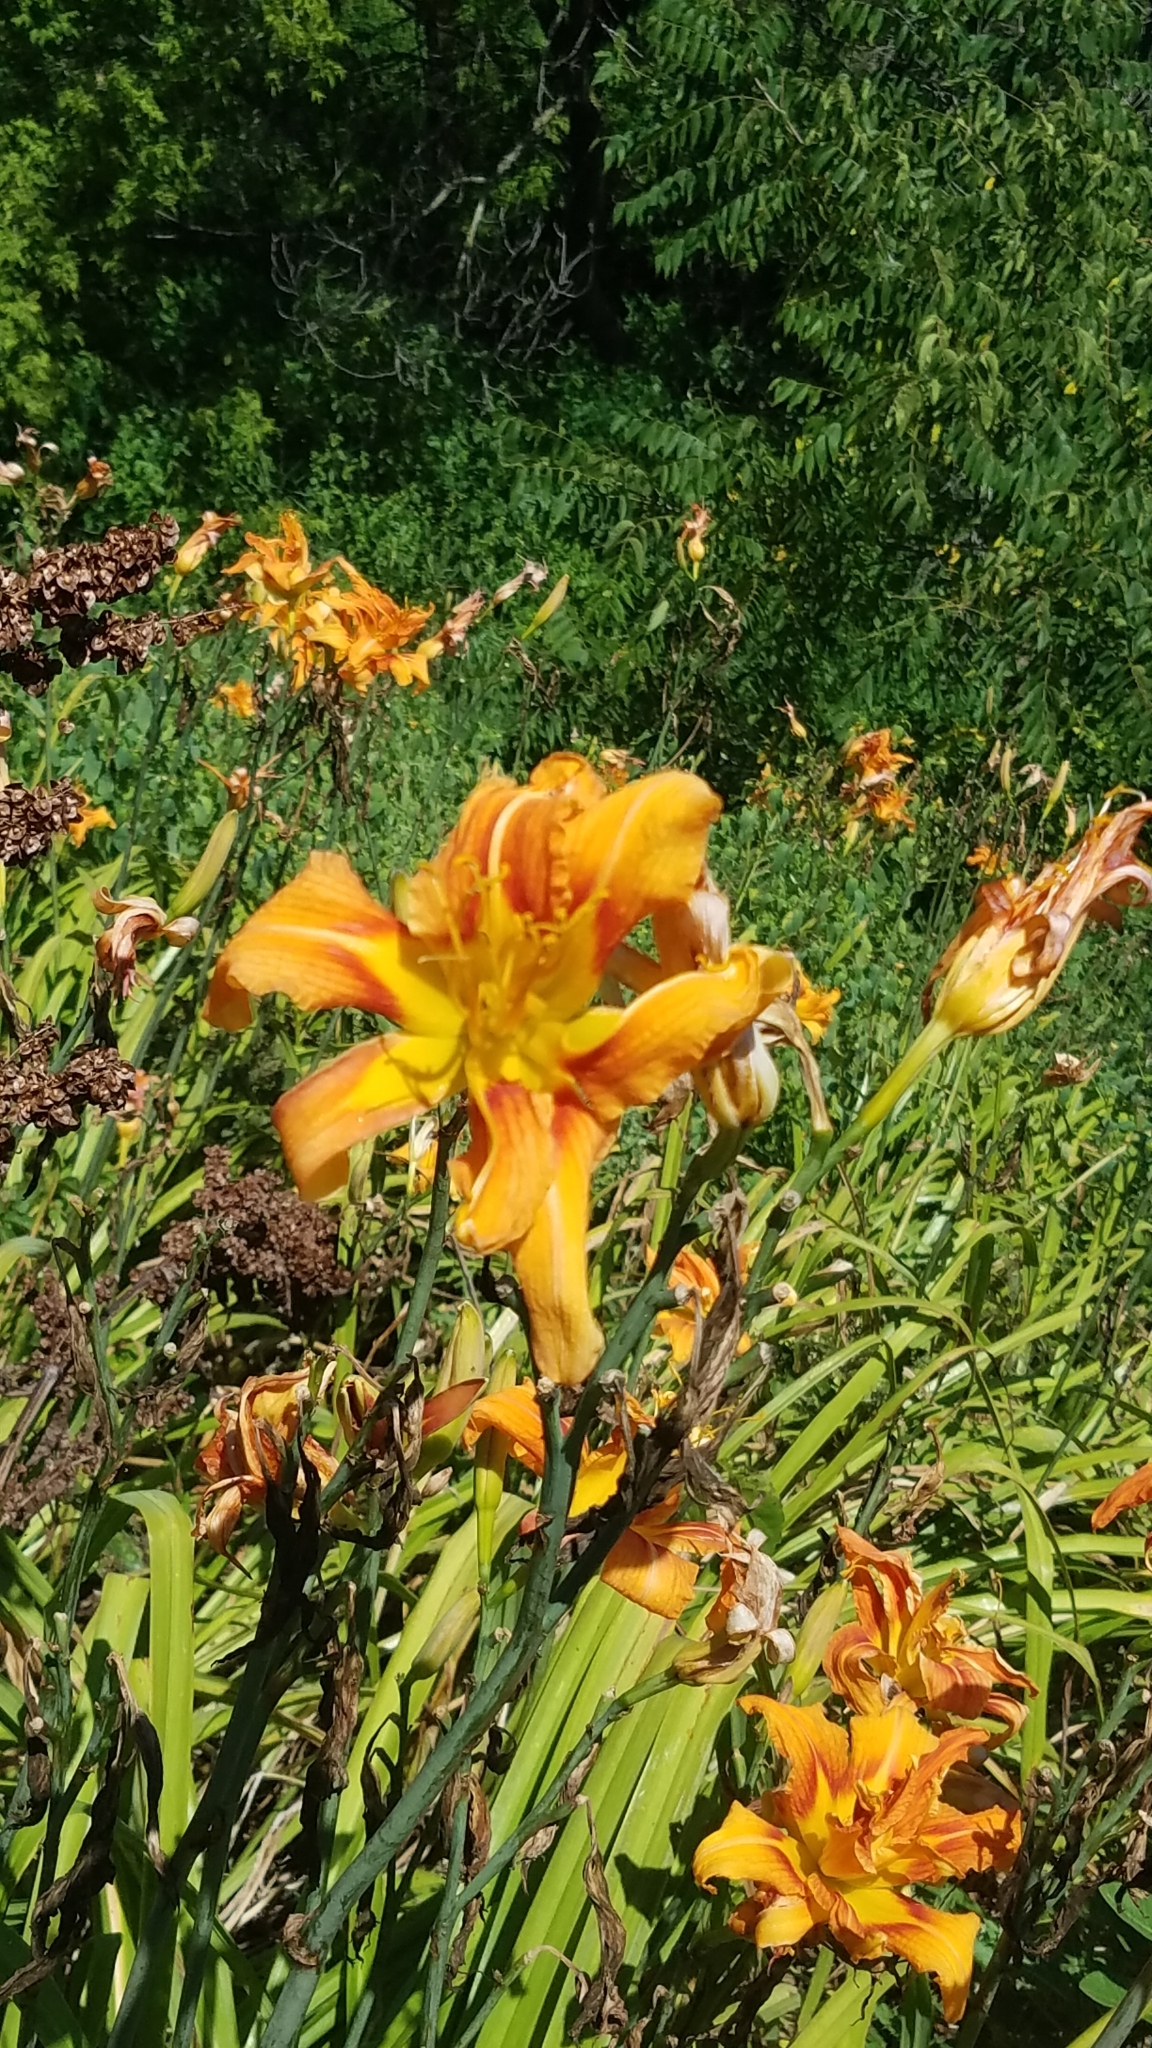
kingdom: Plantae
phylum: Tracheophyta
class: Liliopsida
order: Asparagales
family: Asphodelaceae
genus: Hemerocallis
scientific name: Hemerocallis fulva
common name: Orange day-lily
